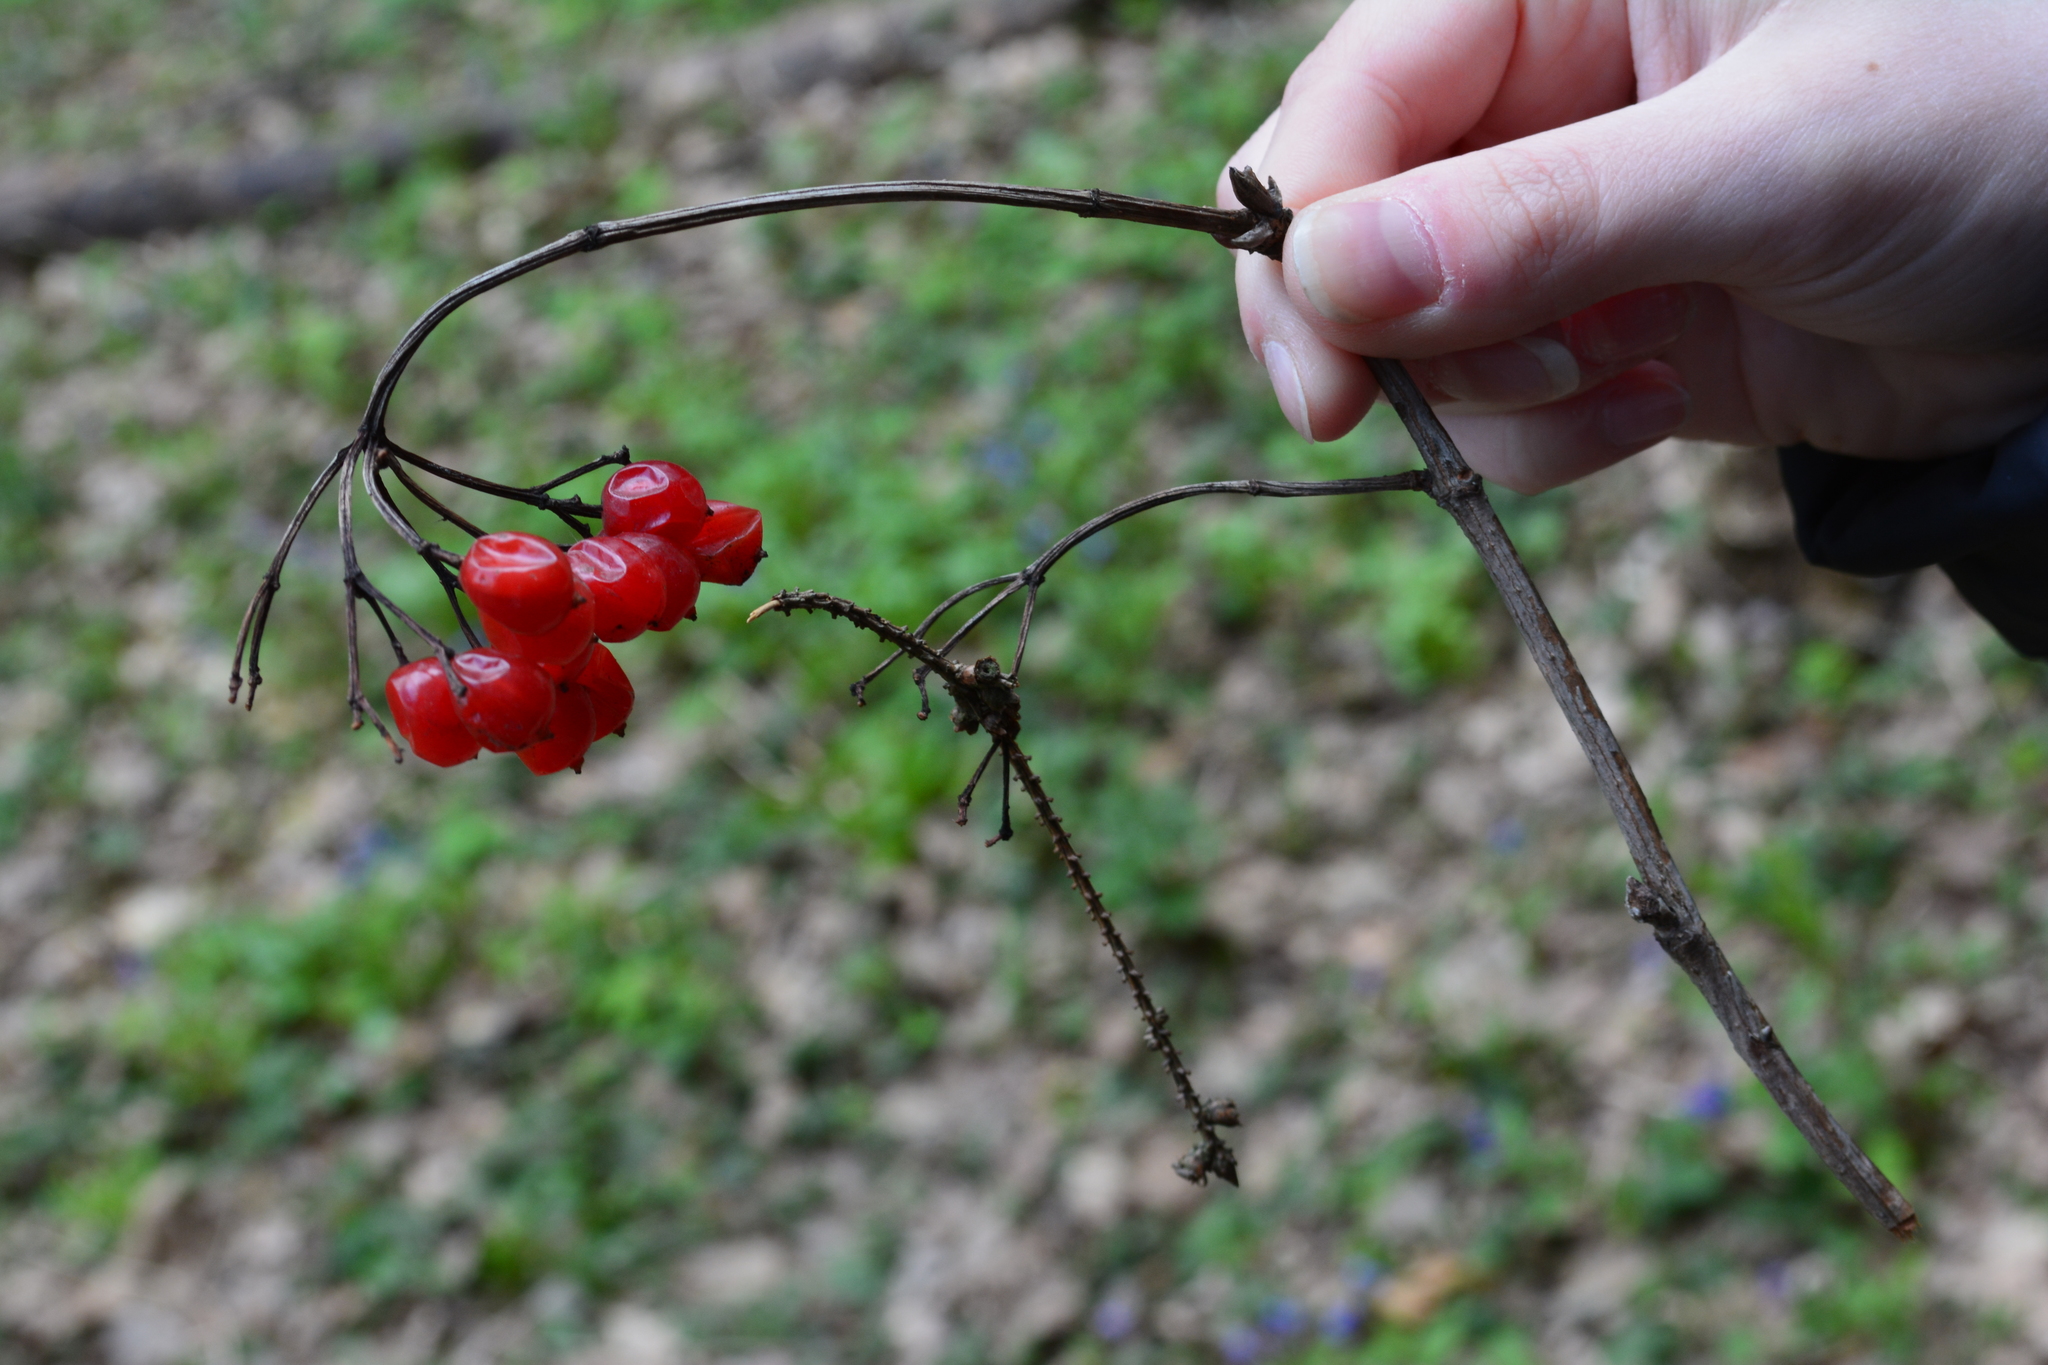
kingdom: Plantae
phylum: Tracheophyta
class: Magnoliopsida
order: Dipsacales
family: Viburnaceae
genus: Viburnum
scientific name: Viburnum opulus
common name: Guelder-rose
